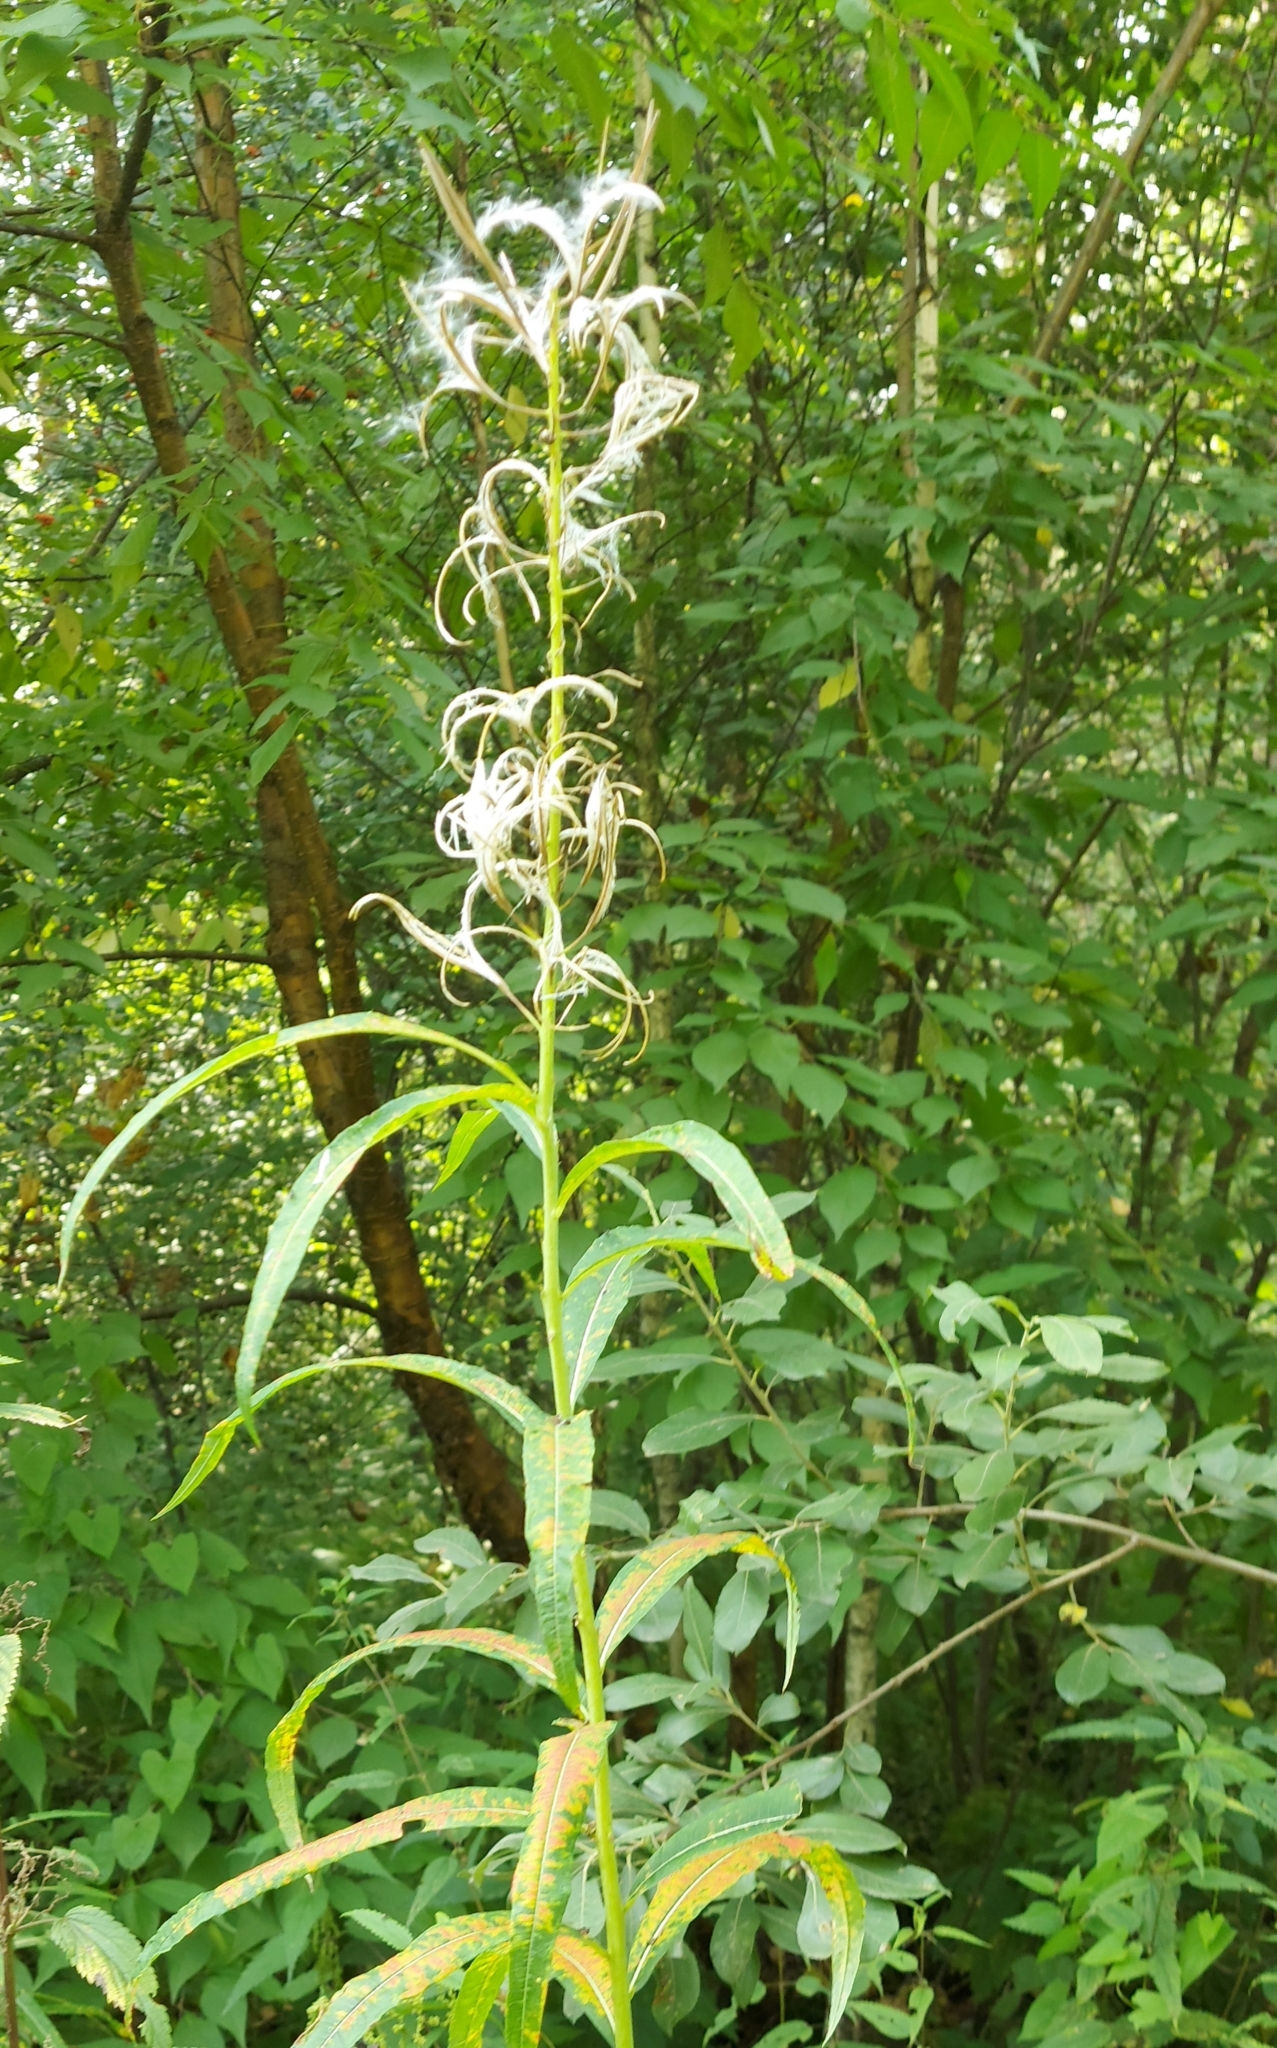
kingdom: Plantae
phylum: Tracheophyta
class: Magnoliopsida
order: Myrtales
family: Onagraceae
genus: Chamaenerion
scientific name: Chamaenerion angustifolium
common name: Fireweed
